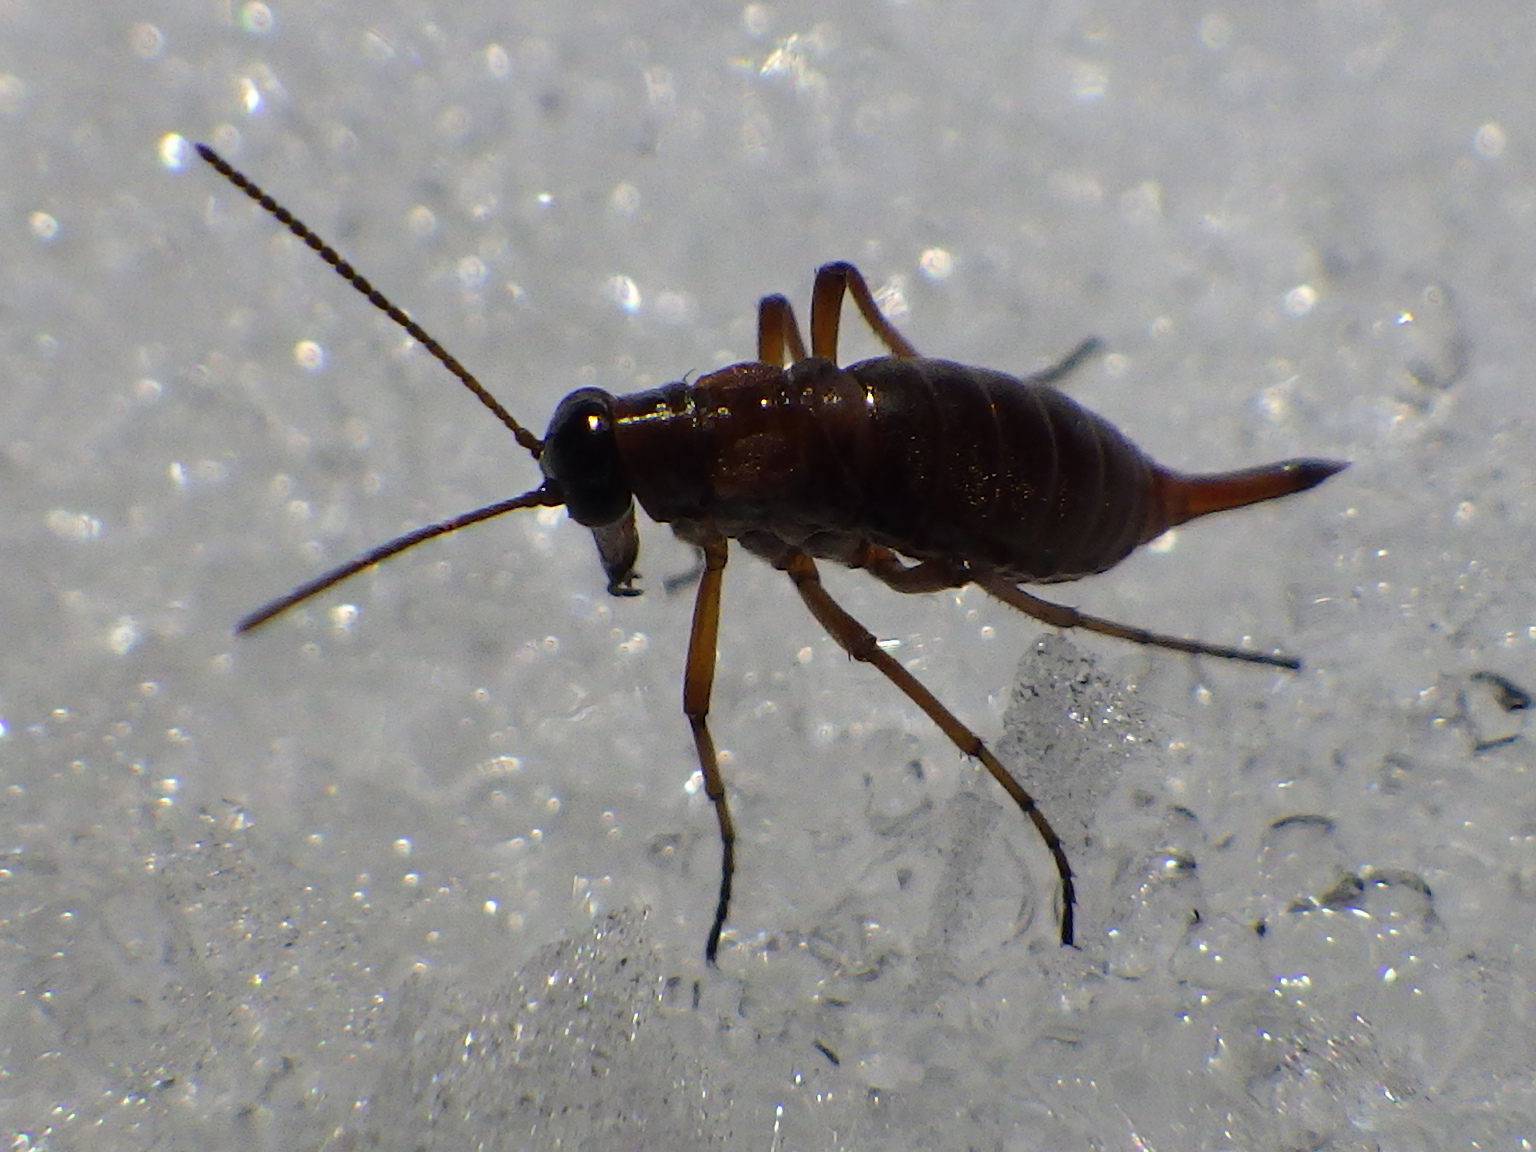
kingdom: Animalia
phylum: Arthropoda
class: Insecta
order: Mecoptera
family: Boreidae
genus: Boreus
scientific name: Boreus nivoriundus
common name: Snow-born boreus
